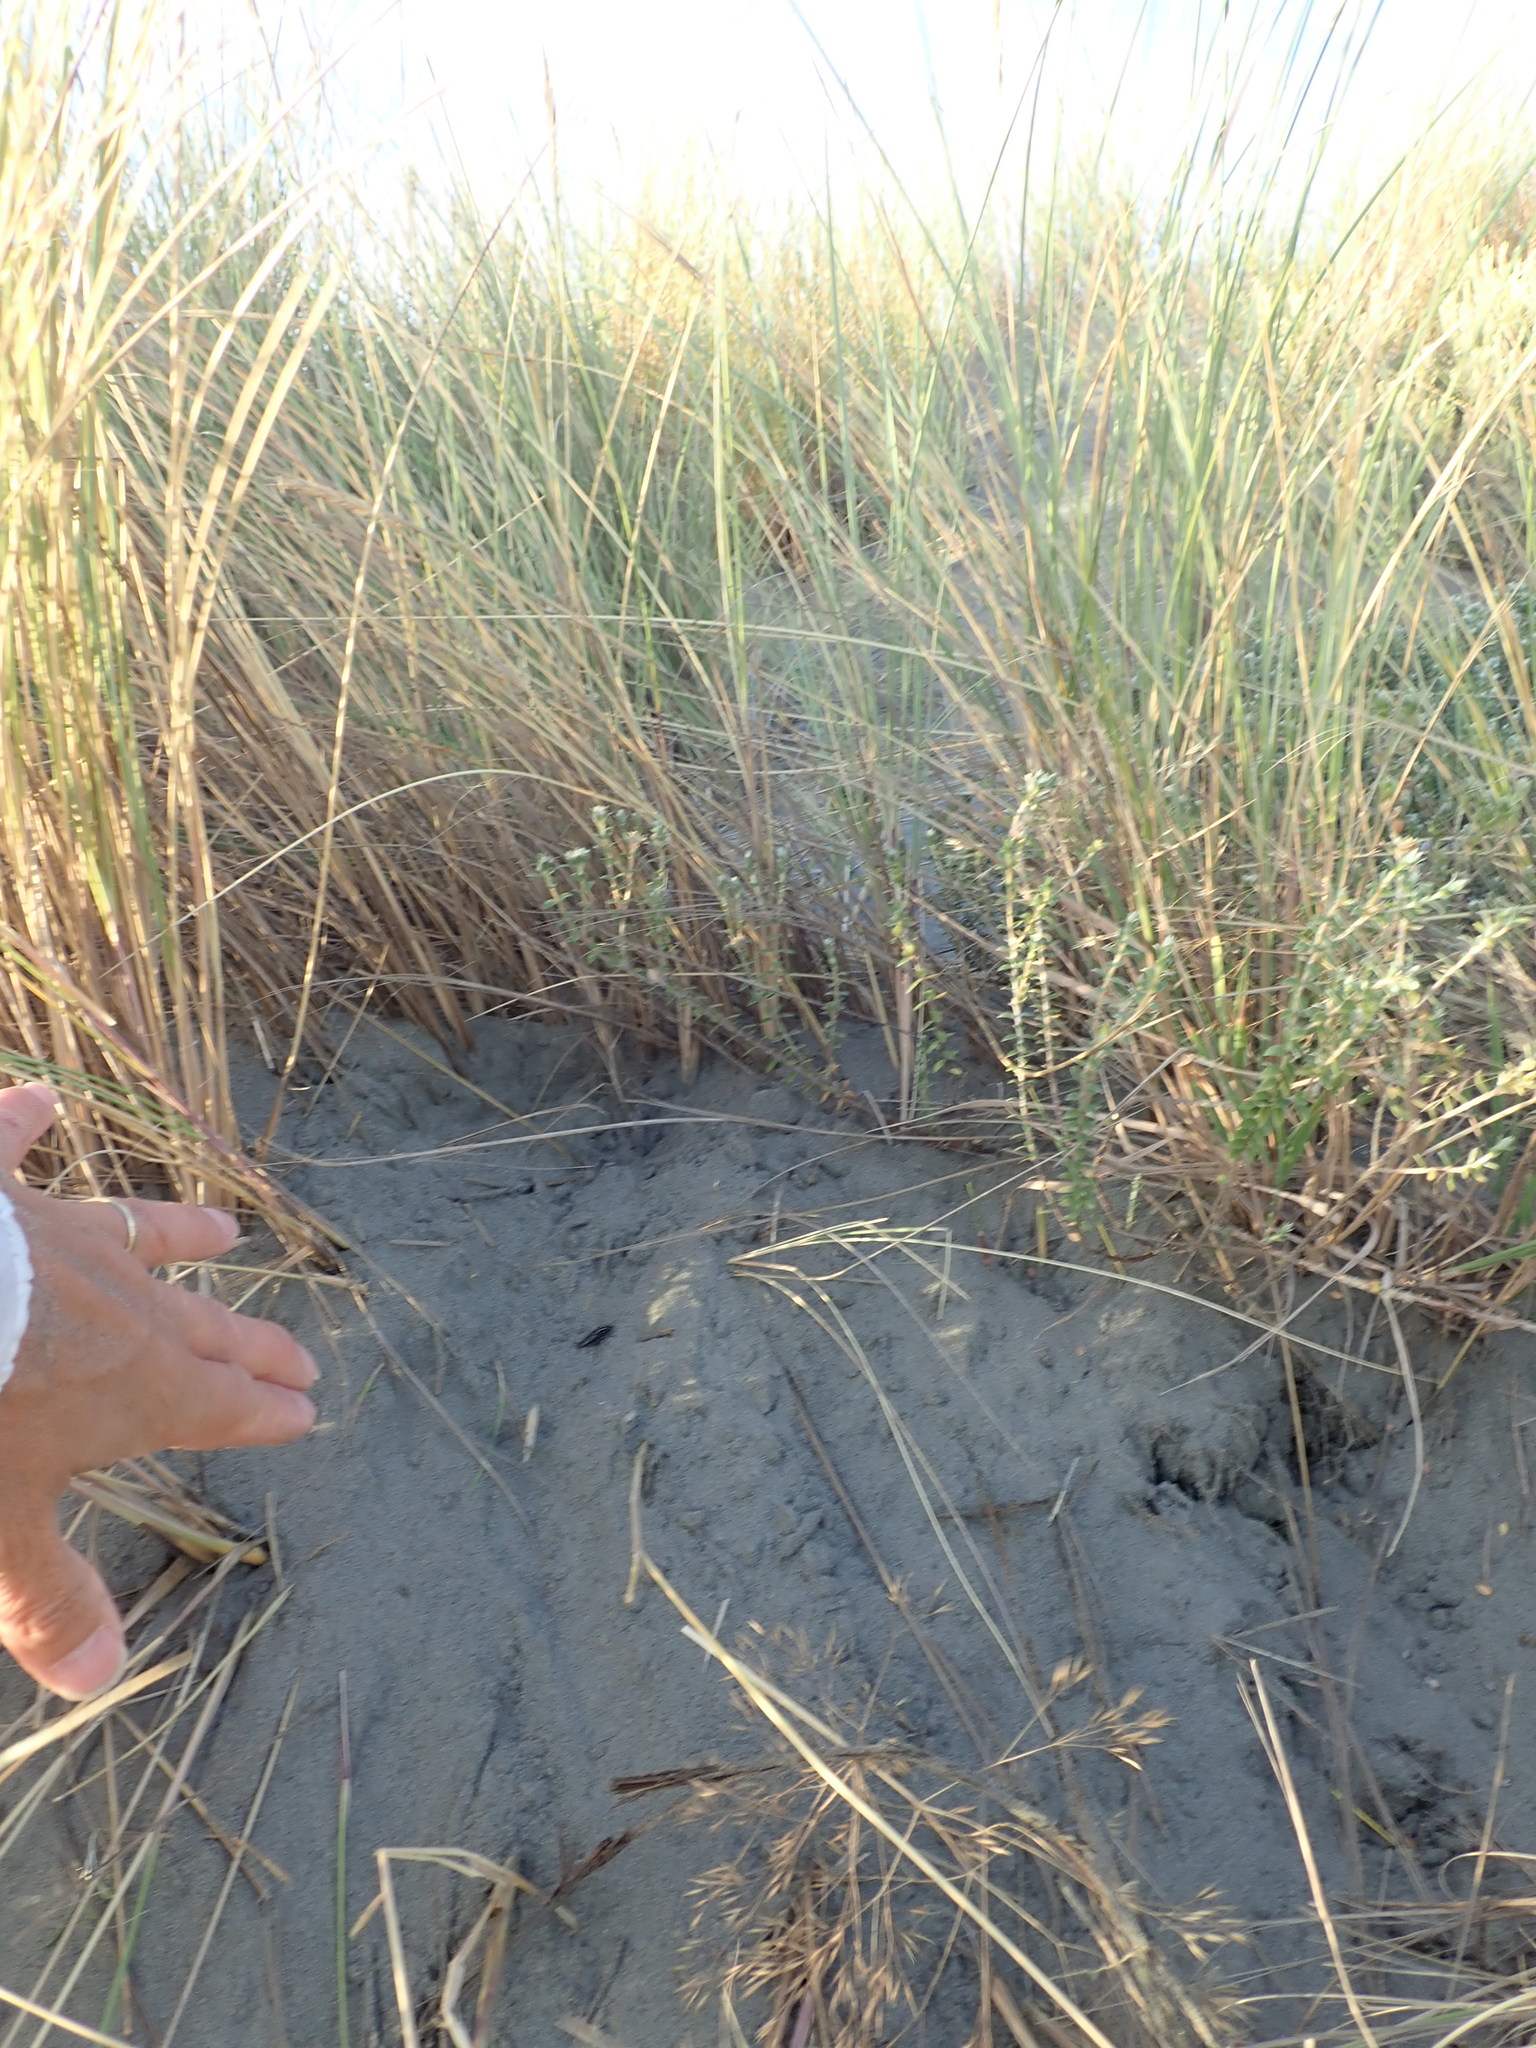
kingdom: Plantae
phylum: Tracheophyta
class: Magnoliopsida
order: Malvales
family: Thymelaeaceae
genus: Pimelea
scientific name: Pimelea villosa
